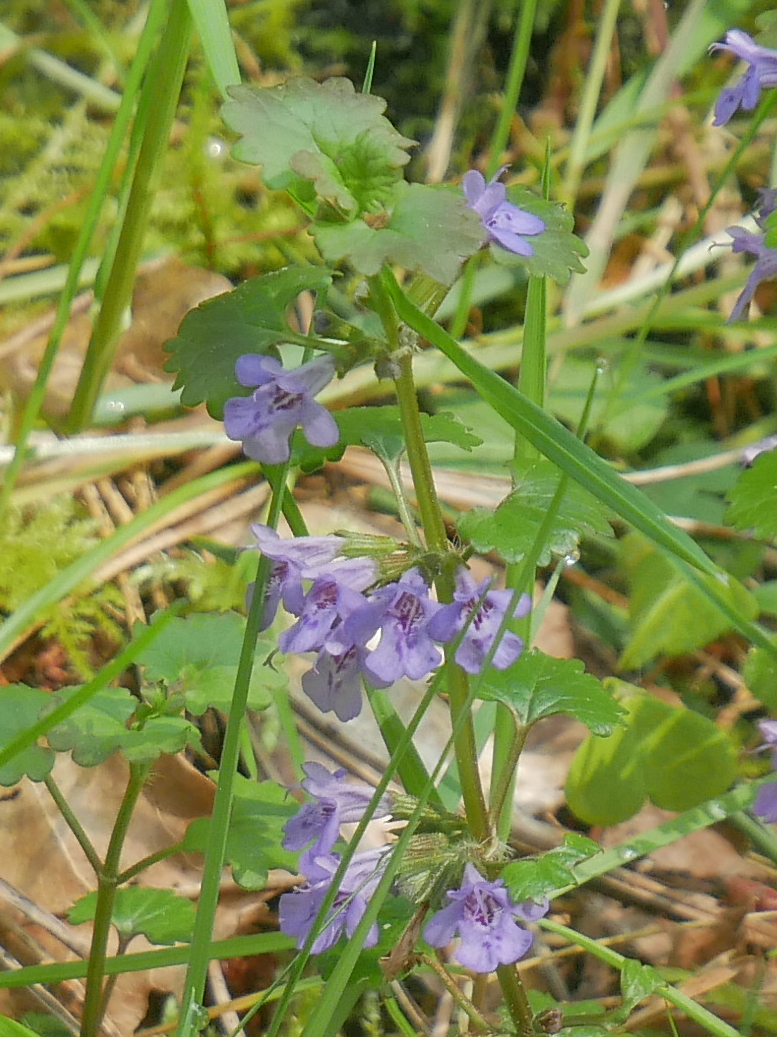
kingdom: Plantae
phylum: Tracheophyta
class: Magnoliopsida
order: Lamiales
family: Lamiaceae
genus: Glechoma
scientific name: Glechoma hederacea
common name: Ground ivy
